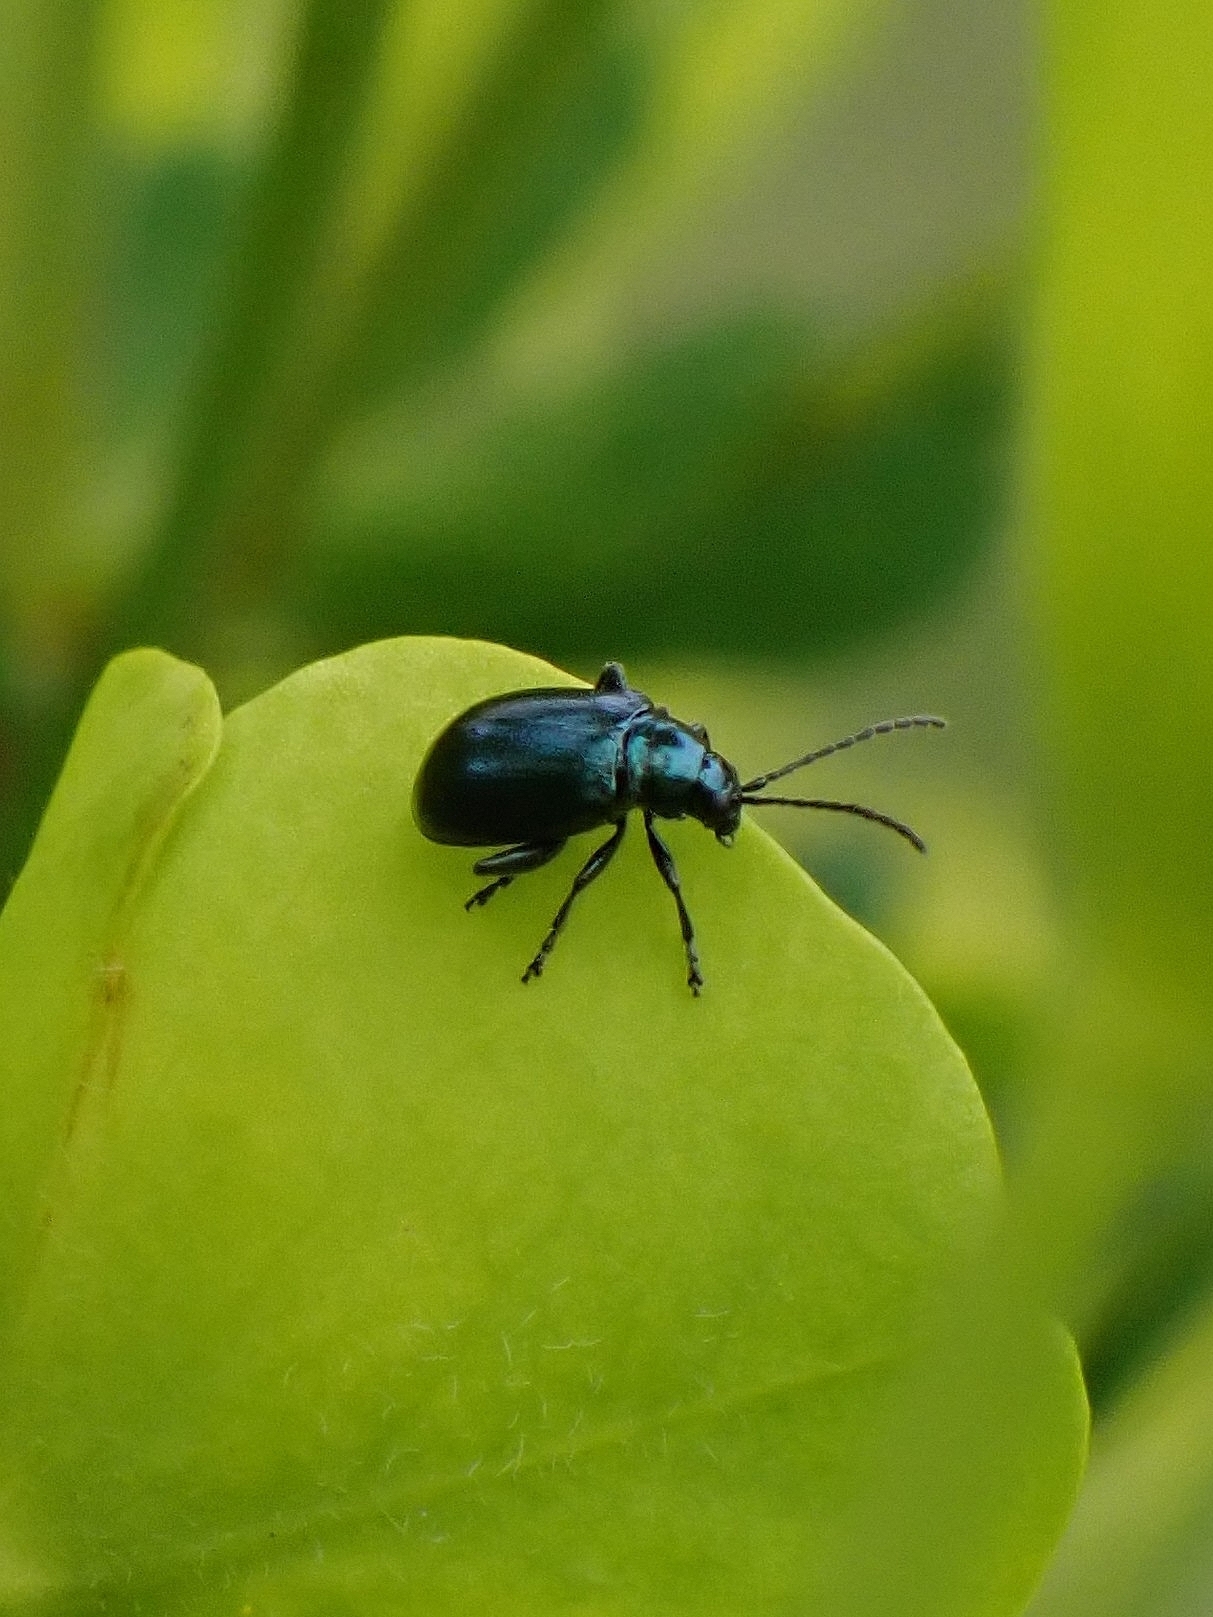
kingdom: Animalia
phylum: Arthropoda
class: Insecta
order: Coleoptera
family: Chrysomelidae
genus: Agelastica
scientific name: Agelastica alni
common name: Alder leaf beetle
